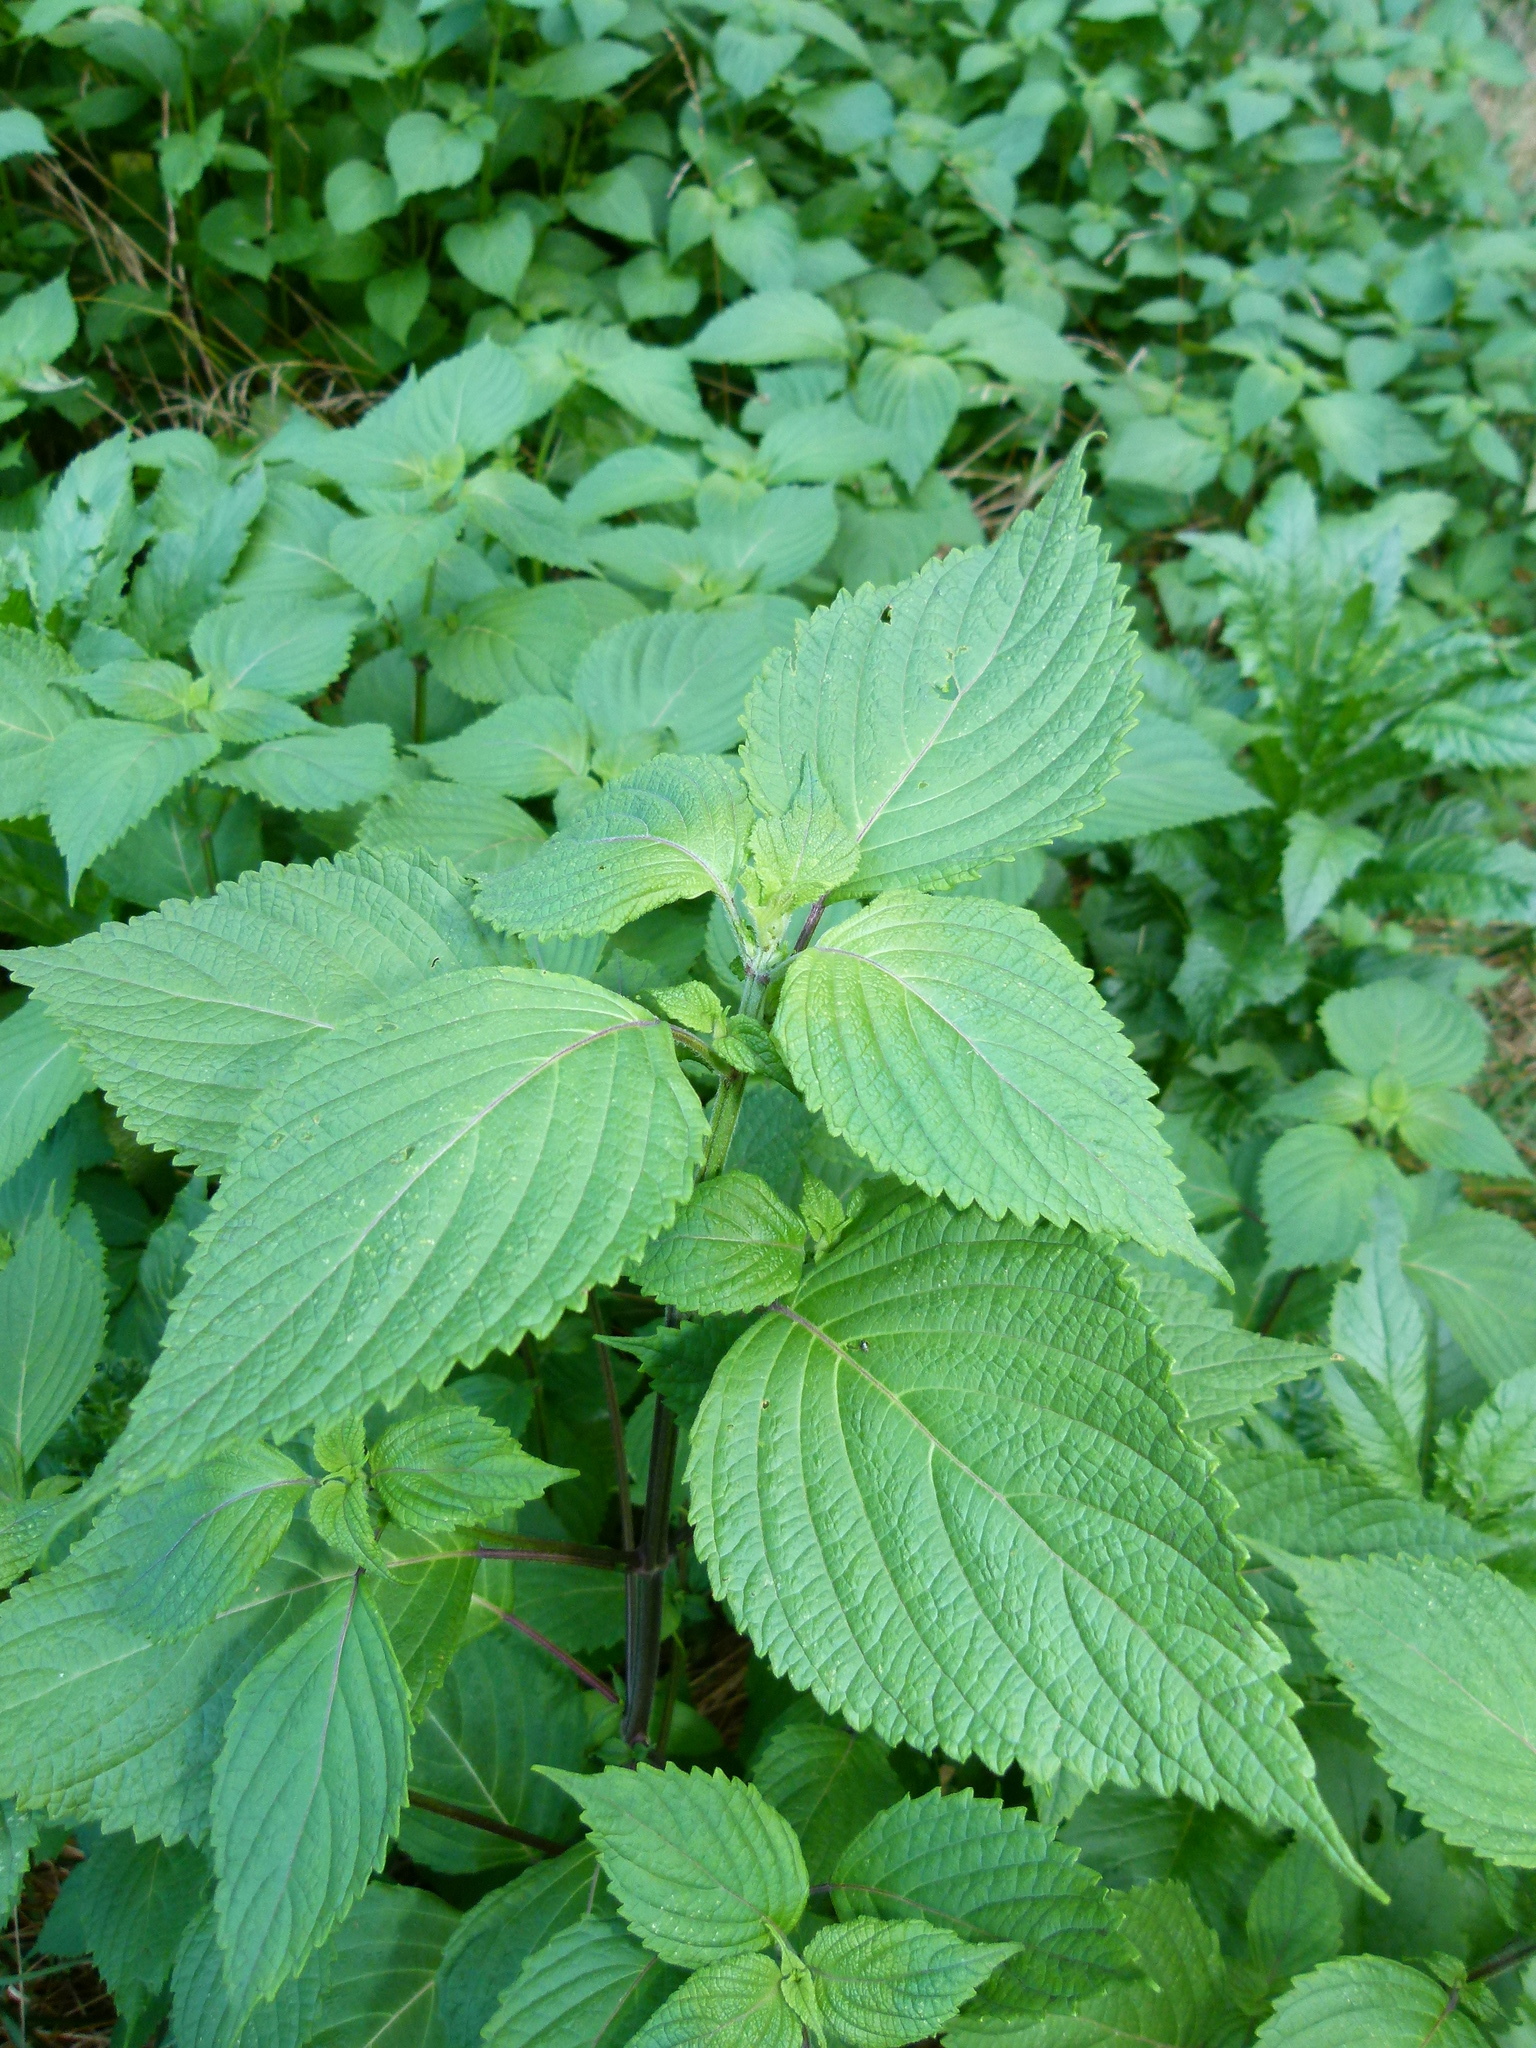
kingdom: Plantae
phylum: Tracheophyta
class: Magnoliopsida
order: Lamiales
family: Lamiaceae
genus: Perilla
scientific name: Perilla frutescens
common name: Perilla
